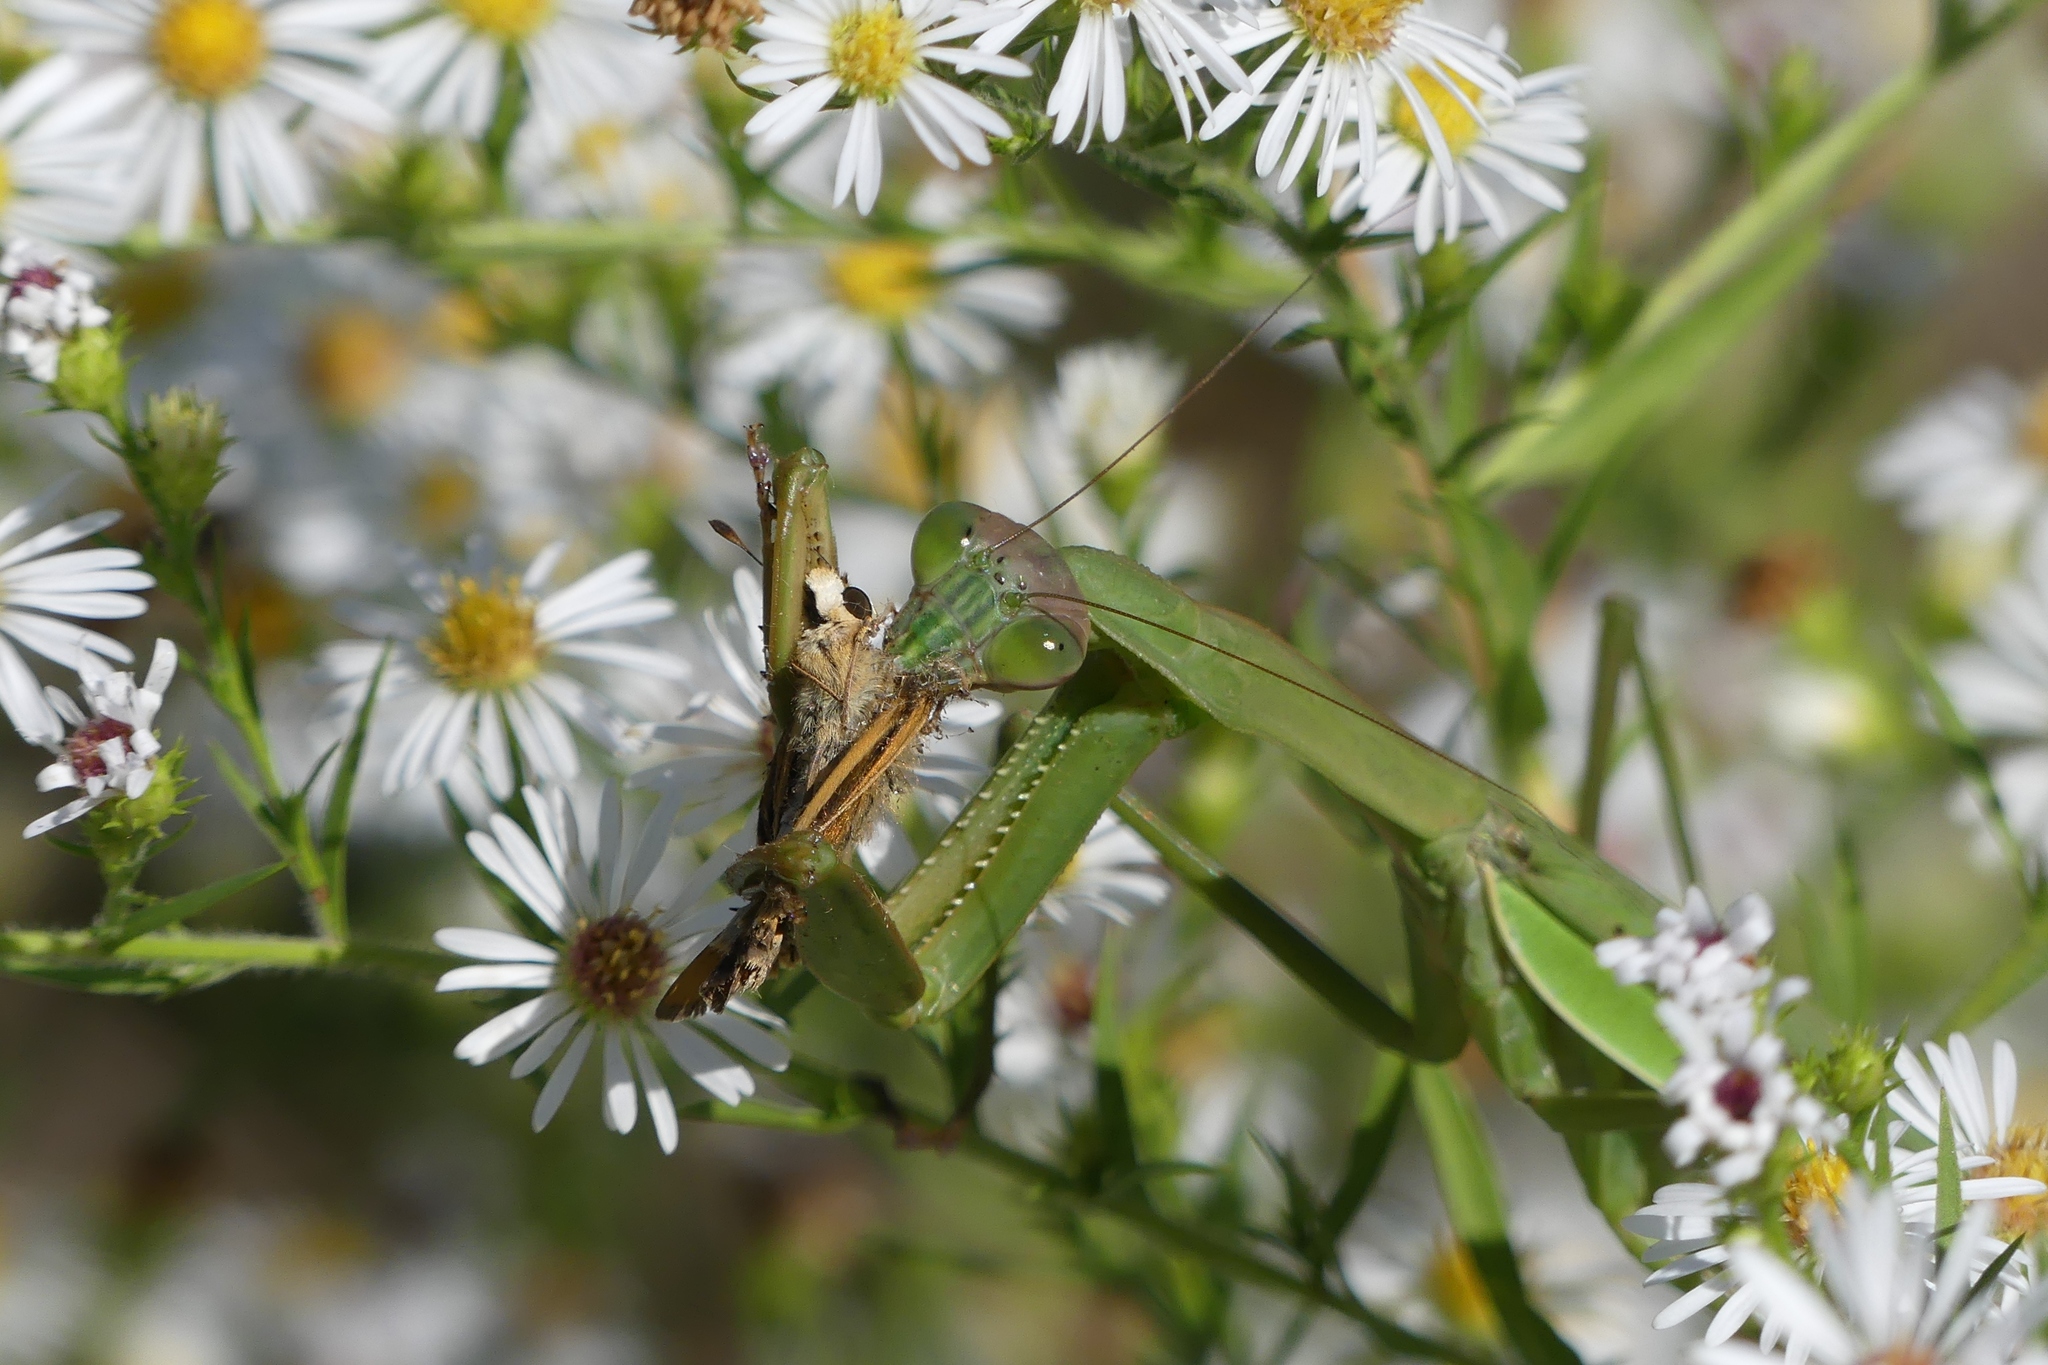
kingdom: Animalia
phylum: Arthropoda
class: Insecta
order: Lepidoptera
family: Hesperiidae
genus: Hylephila
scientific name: Hylephila phyleus
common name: Fiery skipper
